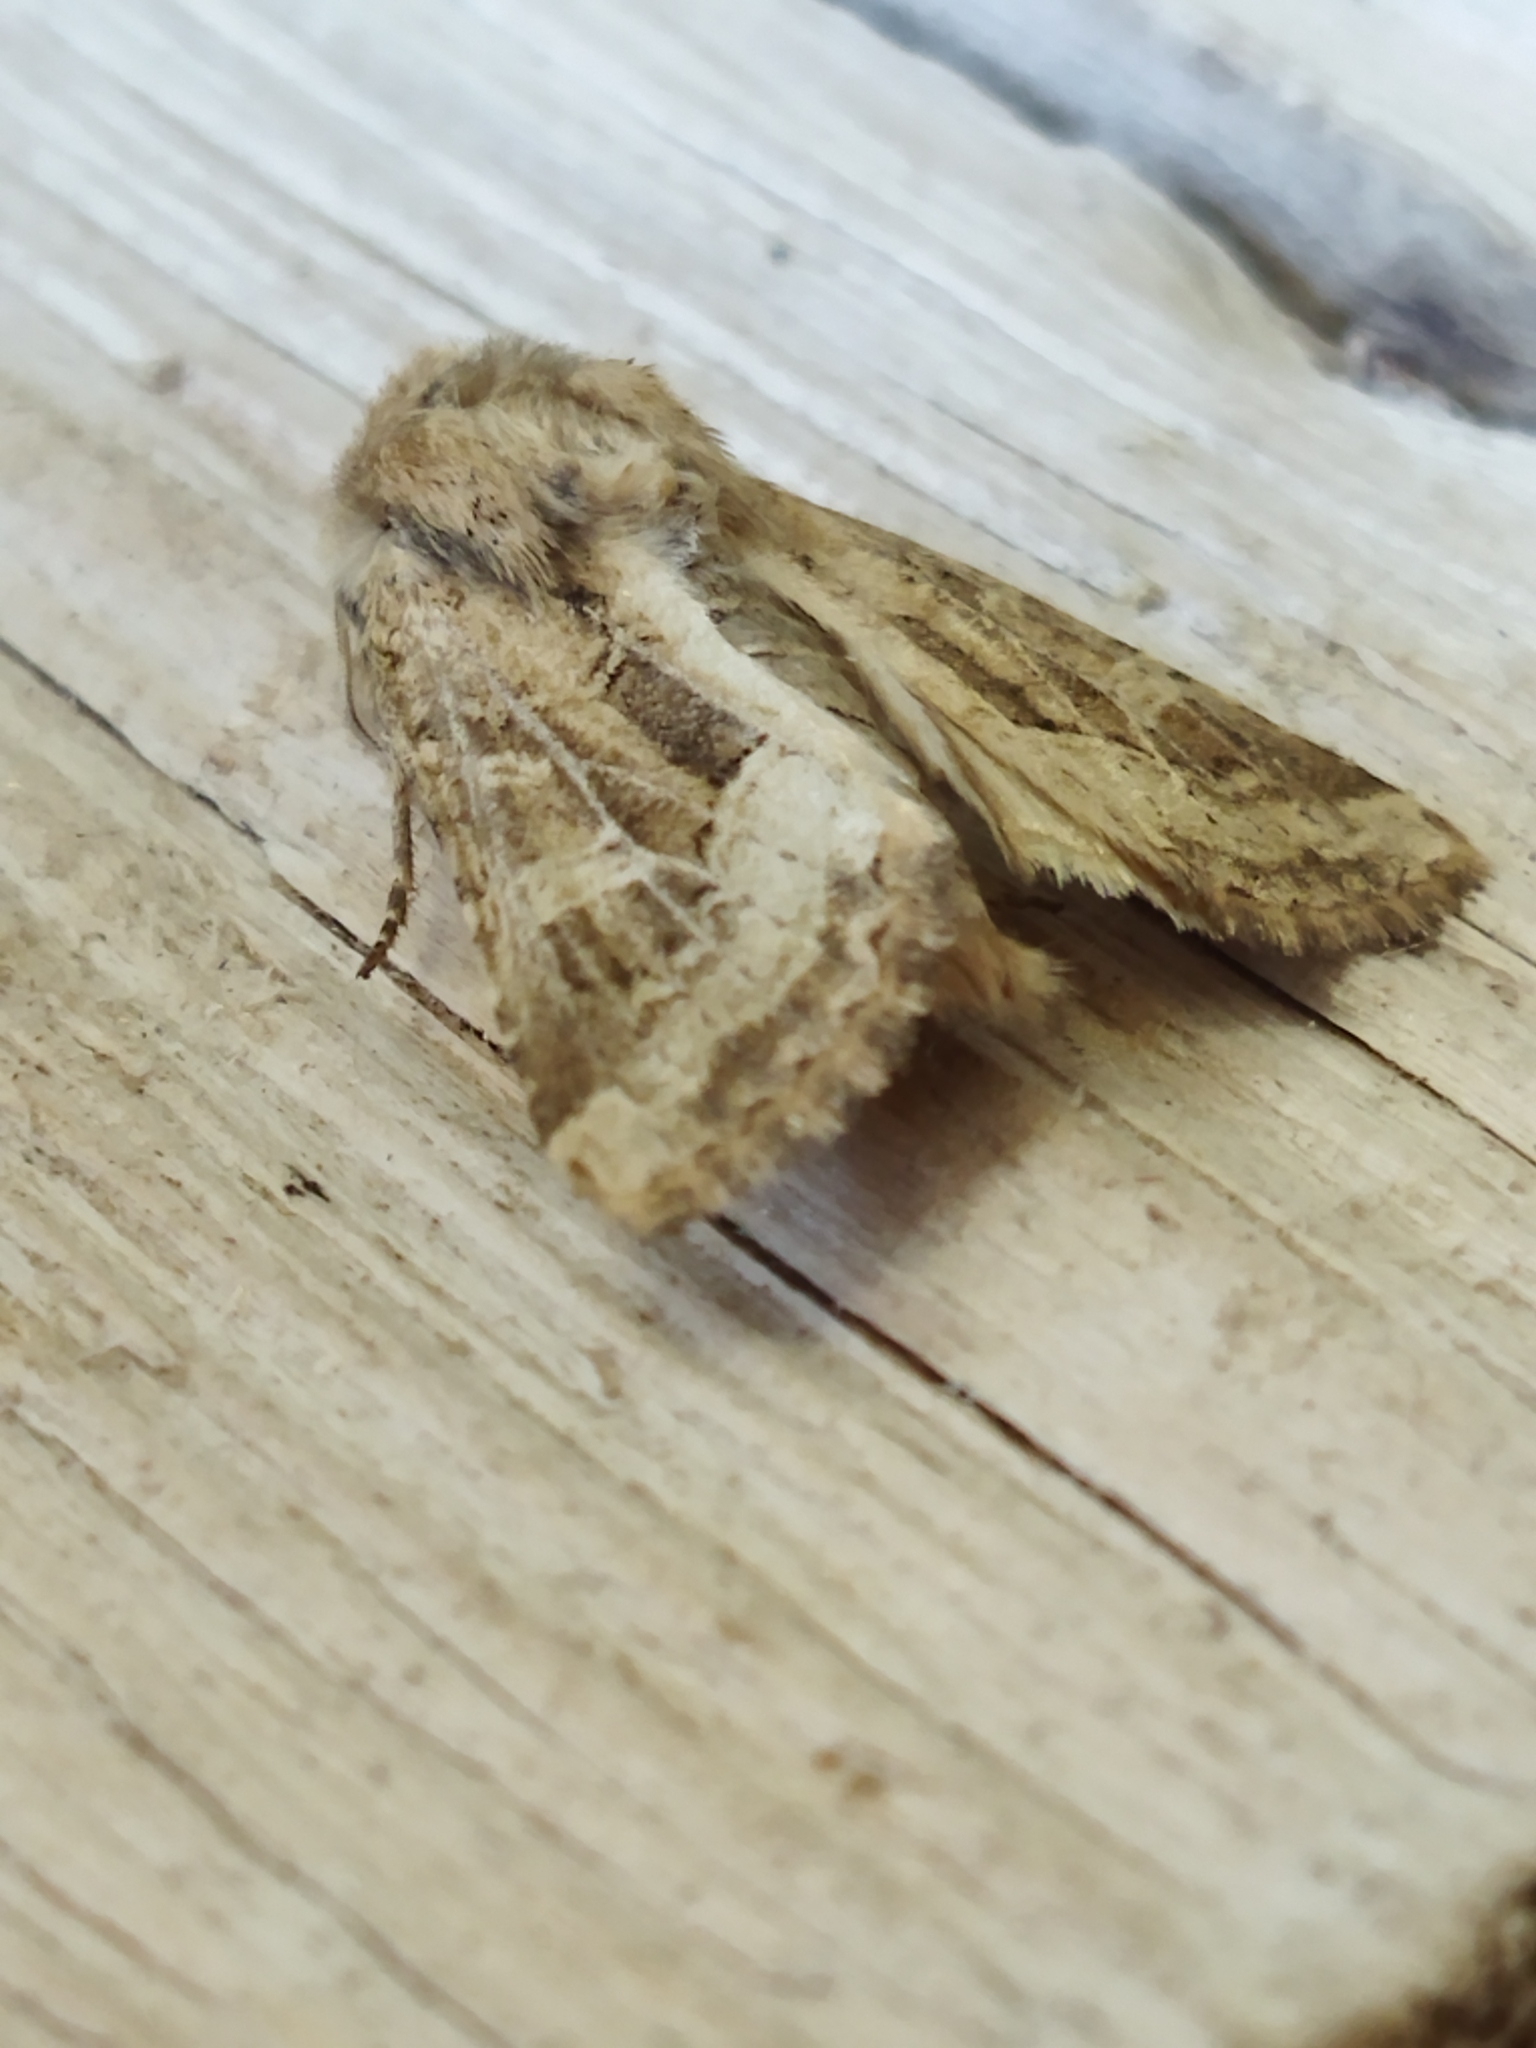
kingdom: Animalia
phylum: Arthropoda
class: Insecta
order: Lepidoptera
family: Noctuidae
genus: Luperina
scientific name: Luperina dumerilii
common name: Dumeril's rustic
